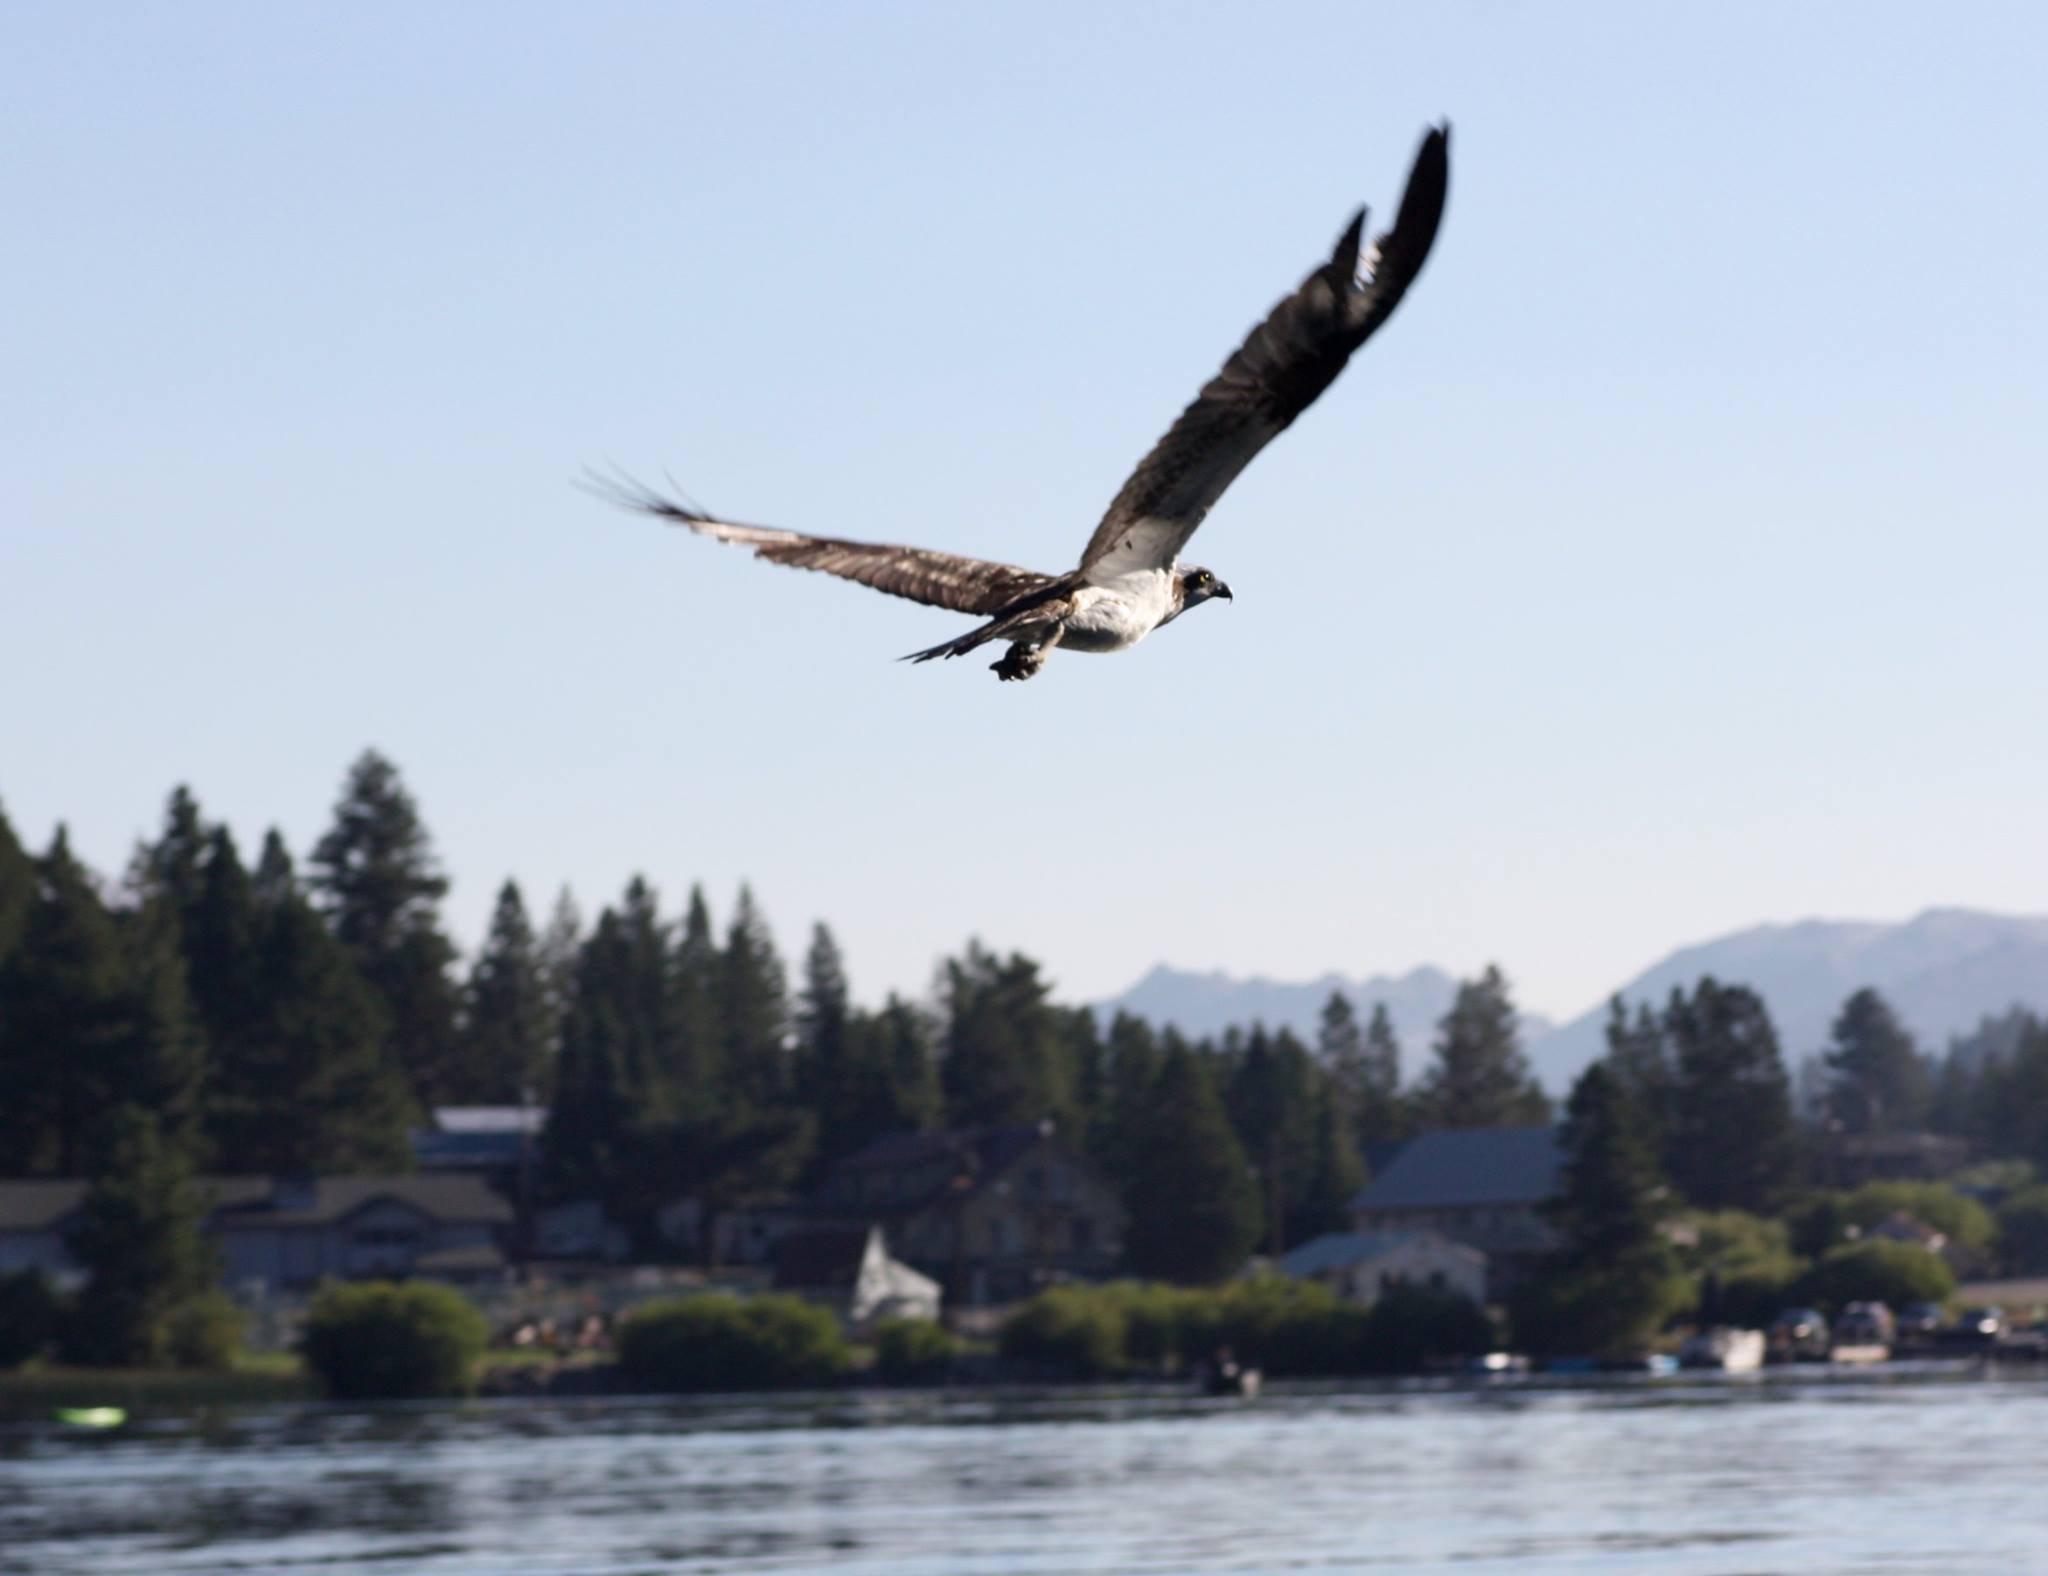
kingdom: Animalia
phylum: Chordata
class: Aves
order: Accipitriformes
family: Pandionidae
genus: Pandion
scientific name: Pandion haliaetus
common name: Osprey
